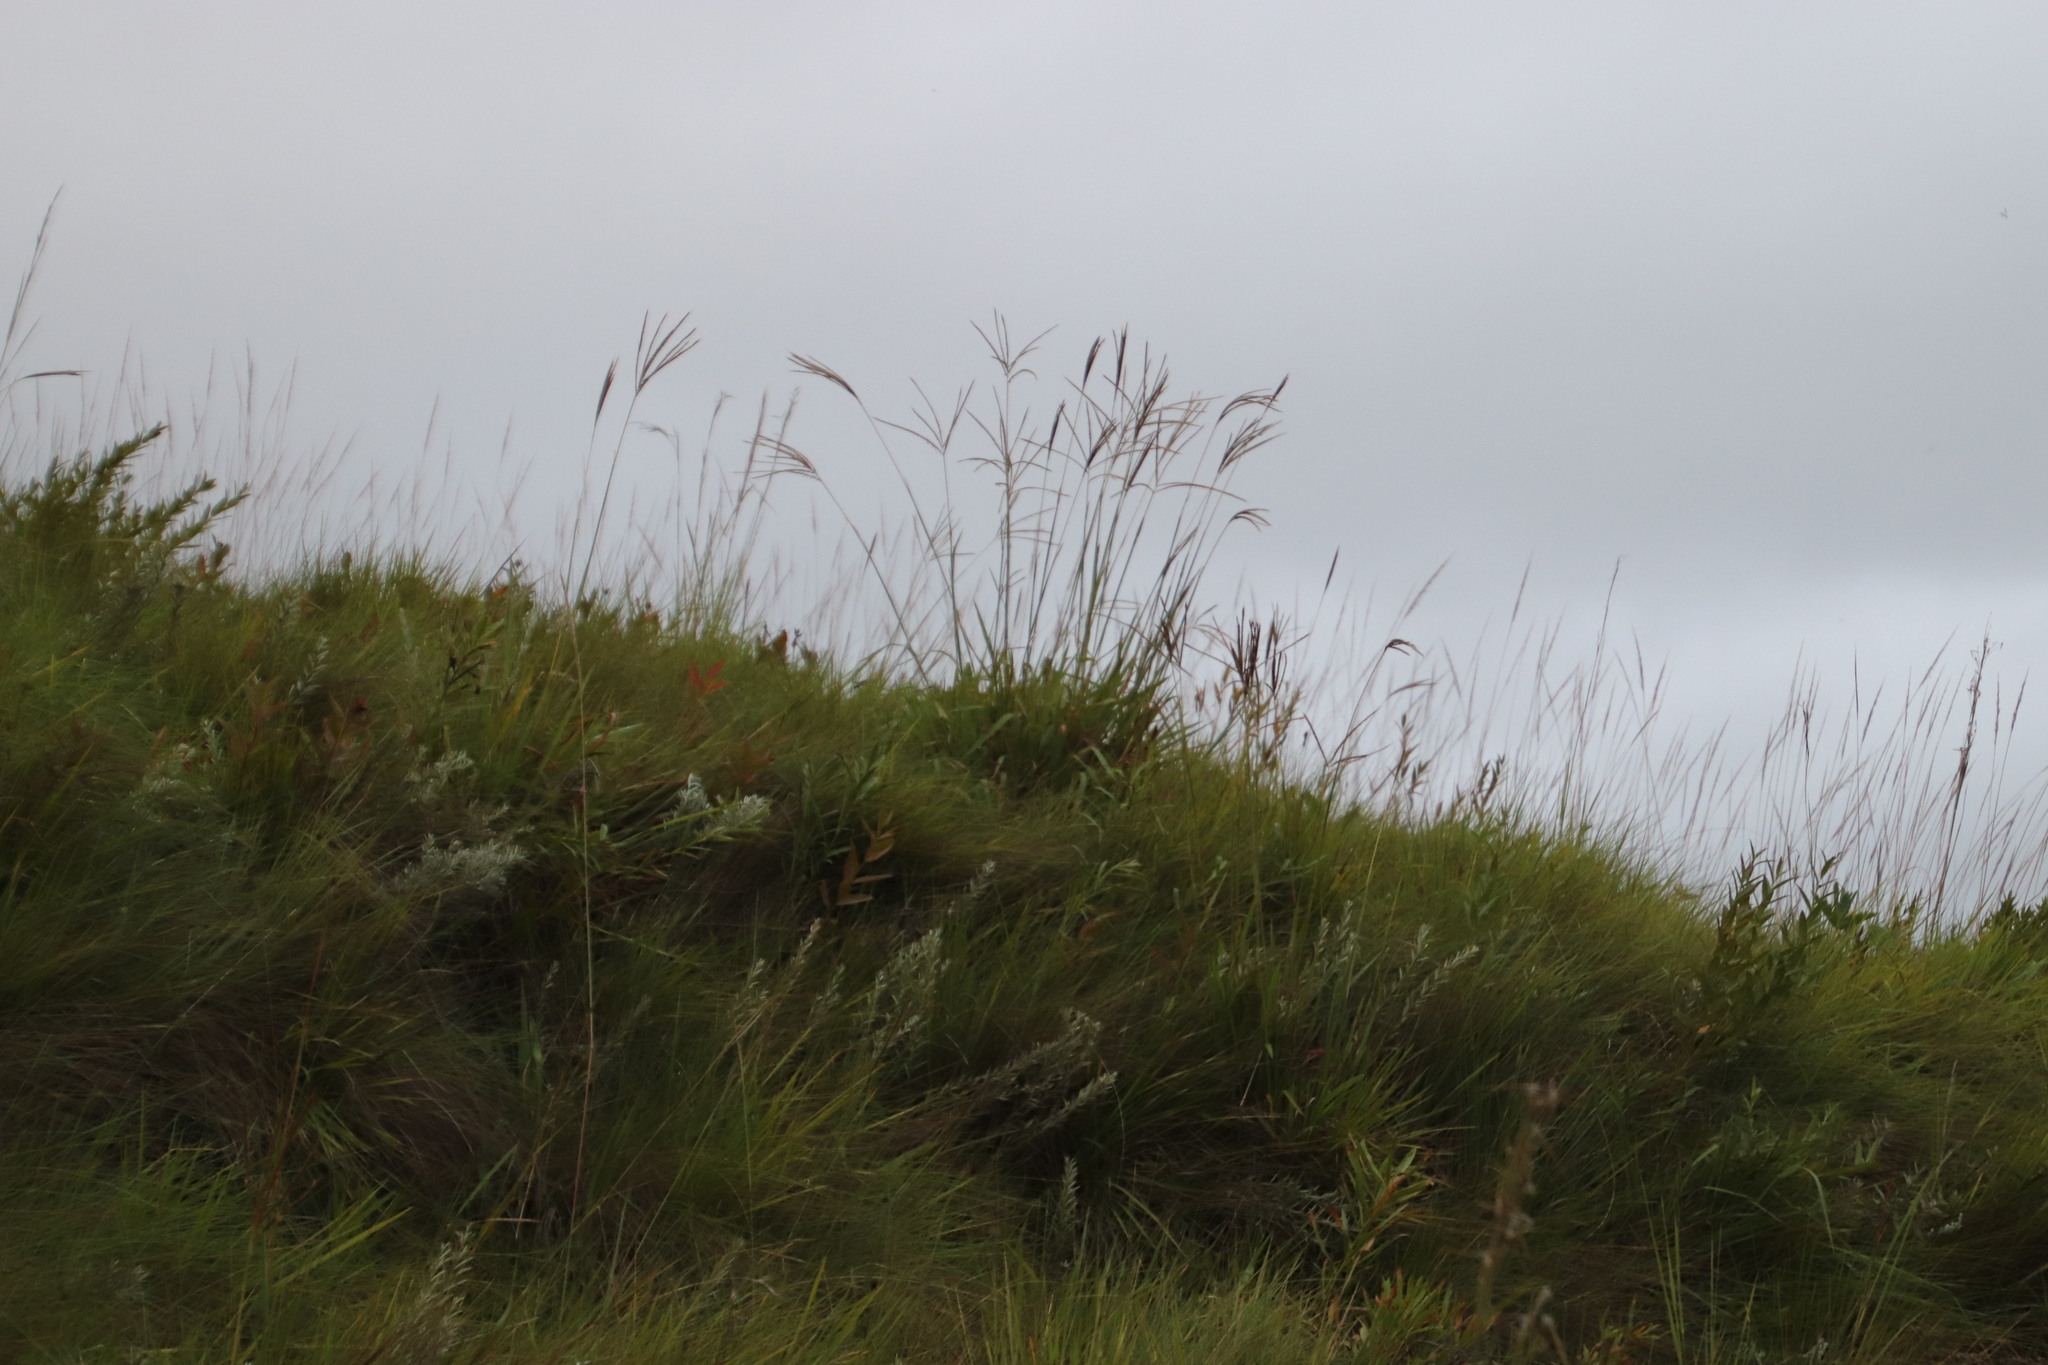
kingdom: Plantae
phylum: Tracheophyta
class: Liliopsida
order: Poales
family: Poaceae
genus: Digitaria
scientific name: Digitaria eriantha
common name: Digitgrass
